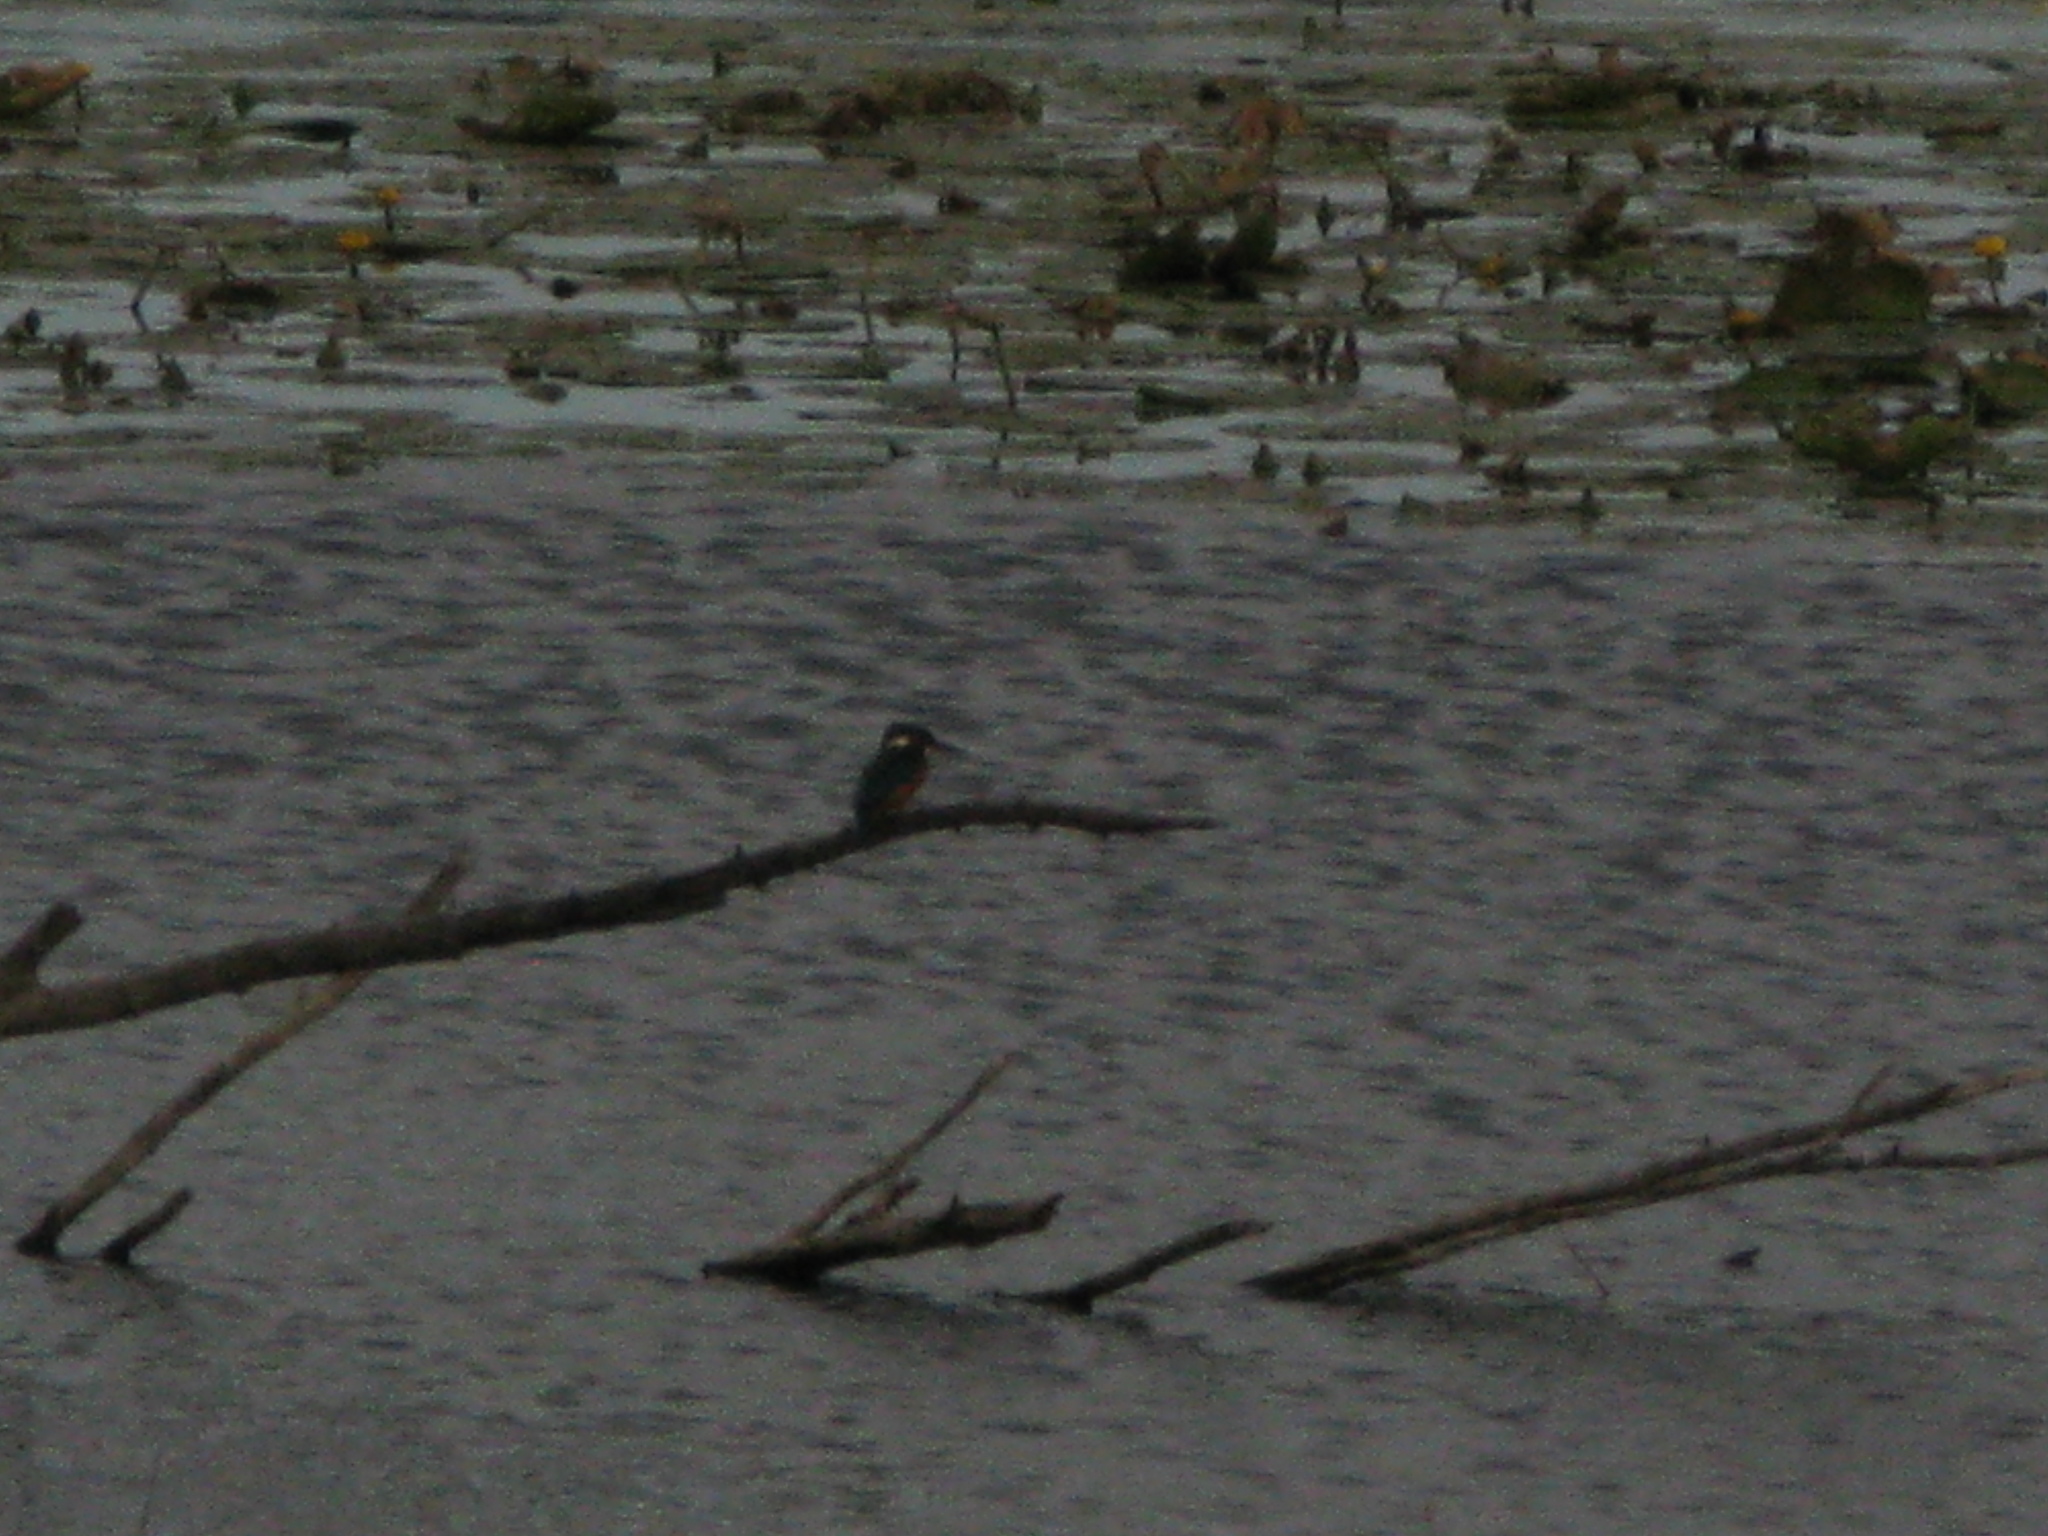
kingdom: Animalia
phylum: Chordata
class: Aves
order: Coraciiformes
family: Alcedinidae
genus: Alcedo
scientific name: Alcedo atthis
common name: Common kingfisher
